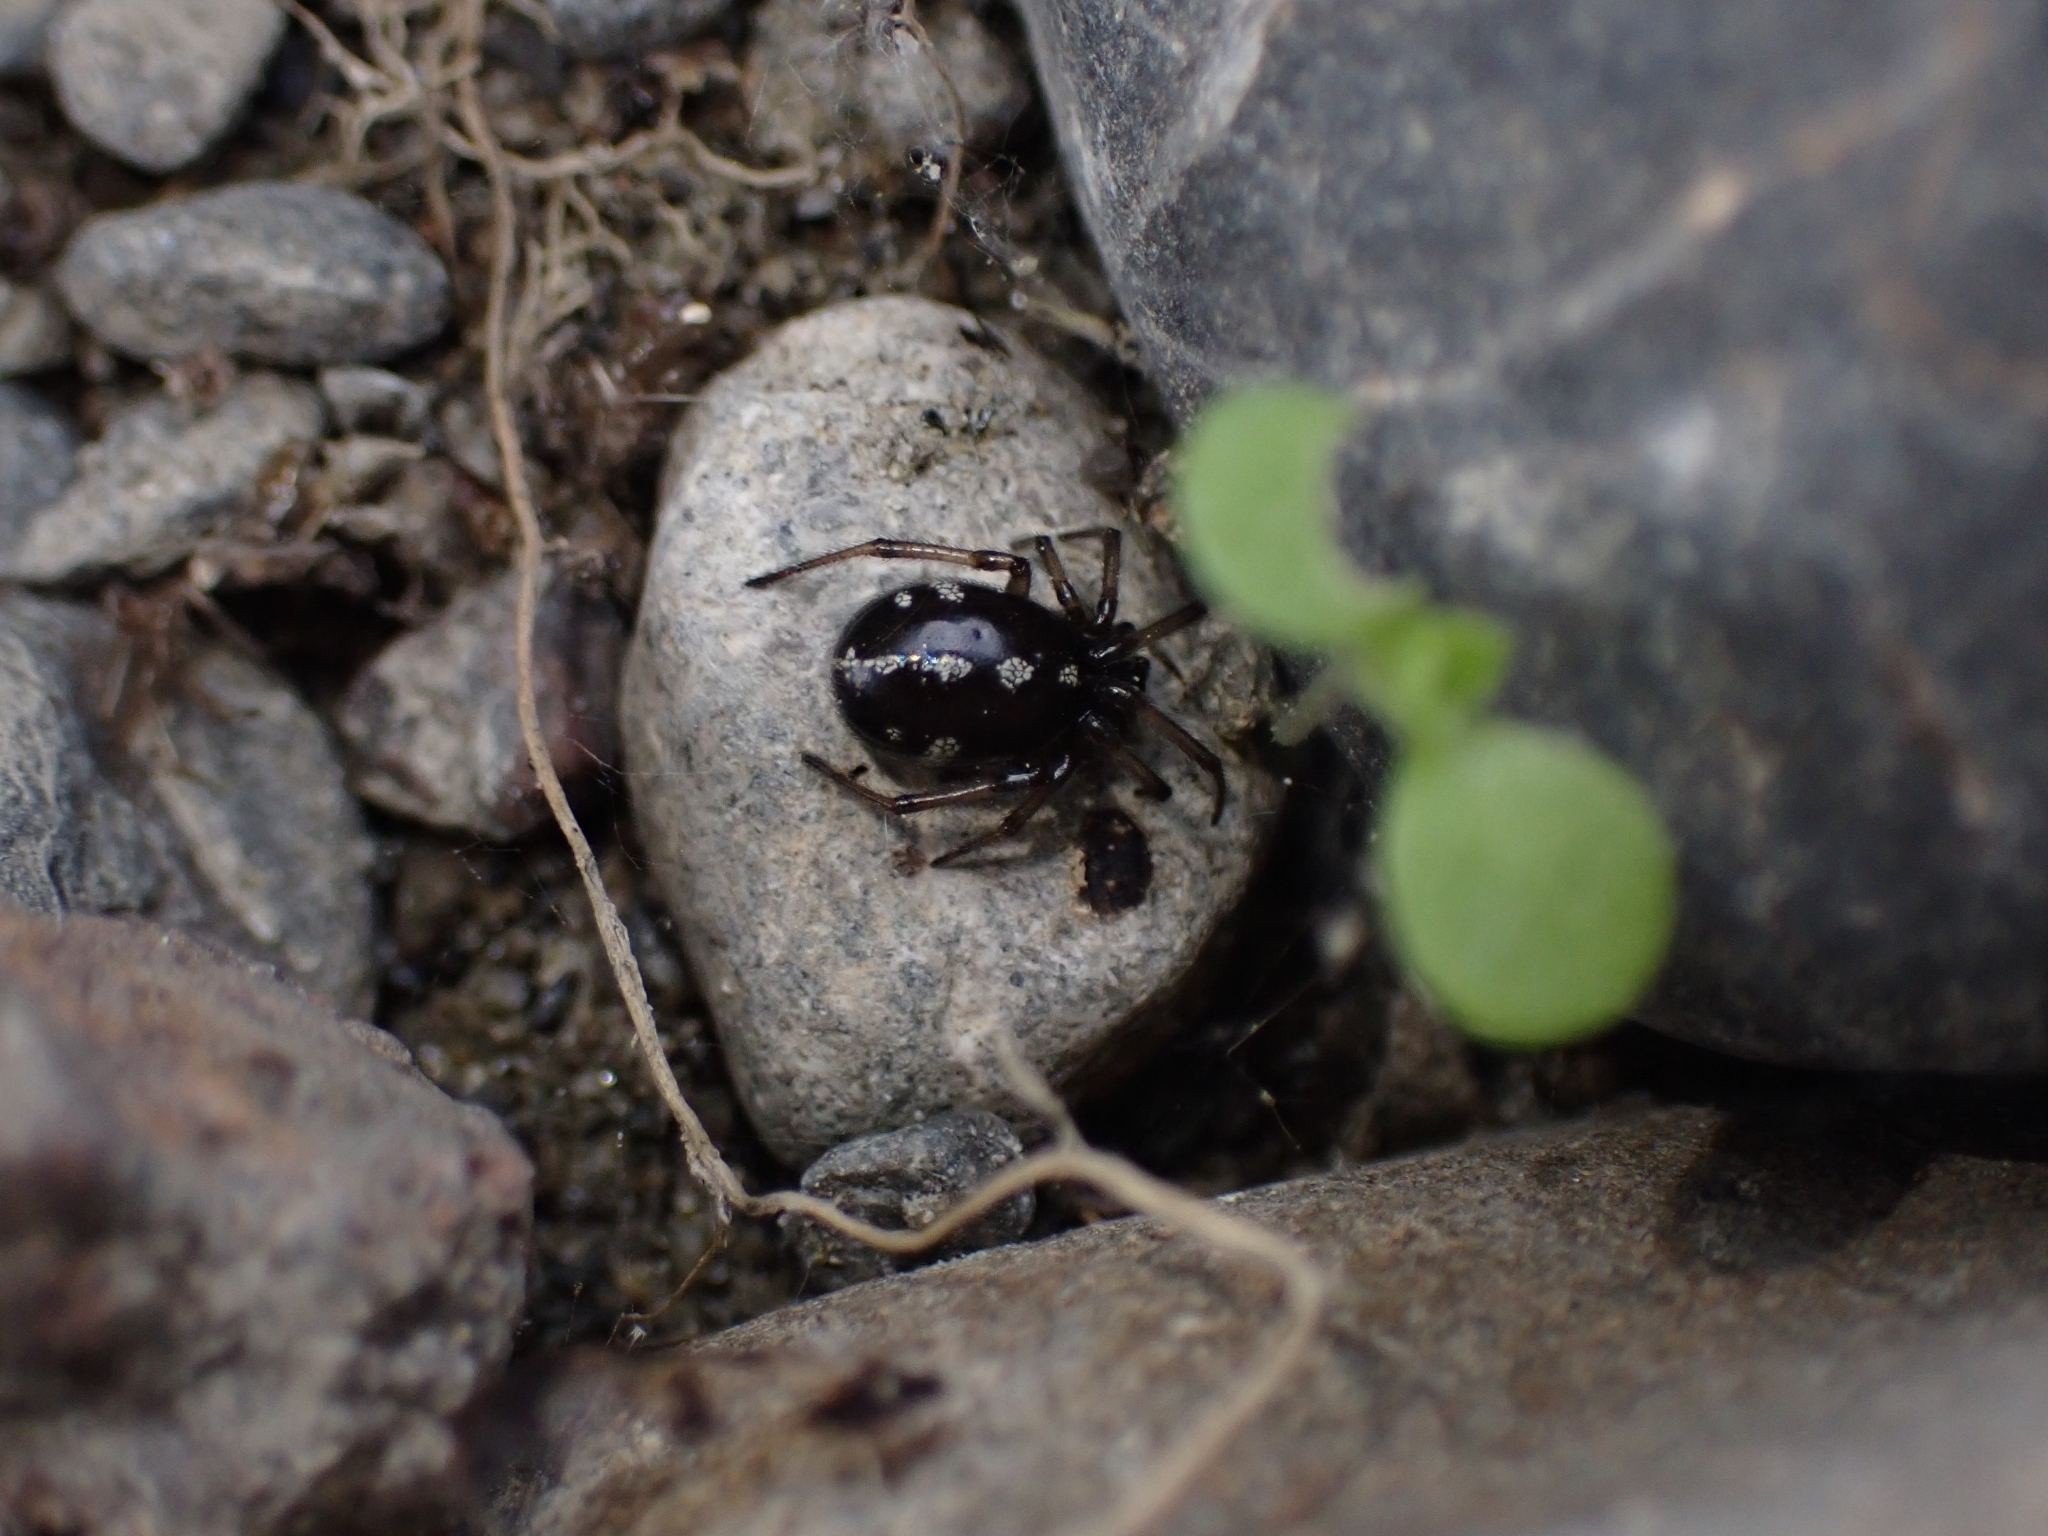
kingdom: Animalia
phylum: Arthropoda
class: Arachnida
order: Araneae
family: Theridiidae
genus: Steatoda
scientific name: Steatoda truncata
